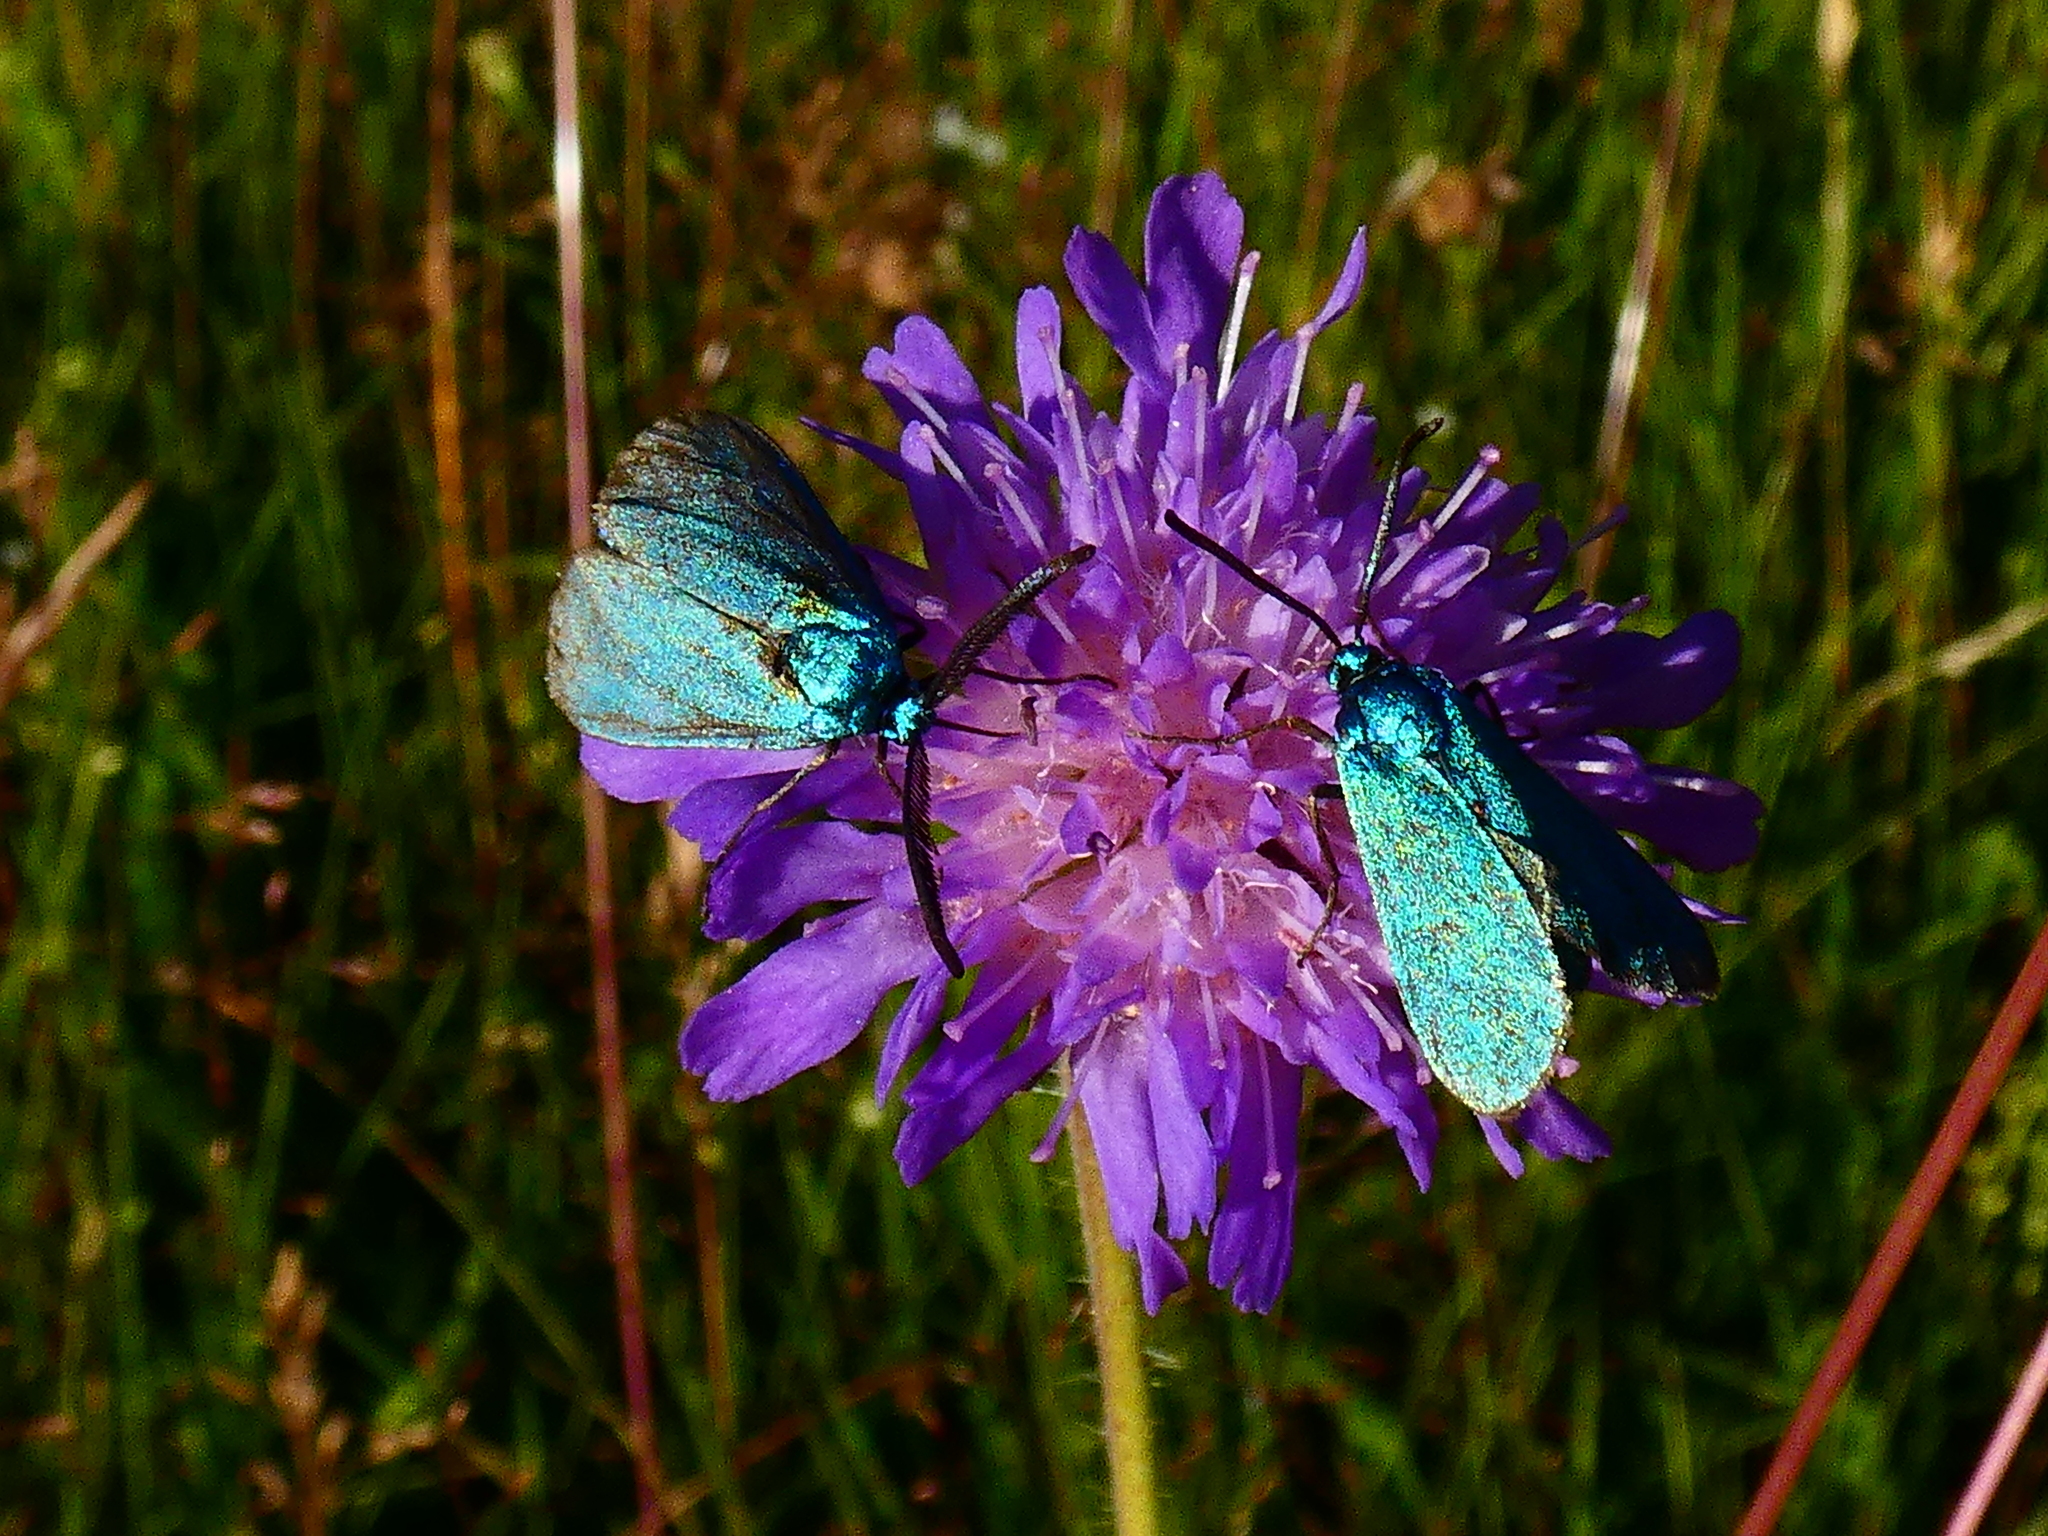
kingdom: Animalia
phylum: Arthropoda
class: Insecta
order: Lepidoptera
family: Zygaenidae
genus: Adscita
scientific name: Adscita statices
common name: Forester
